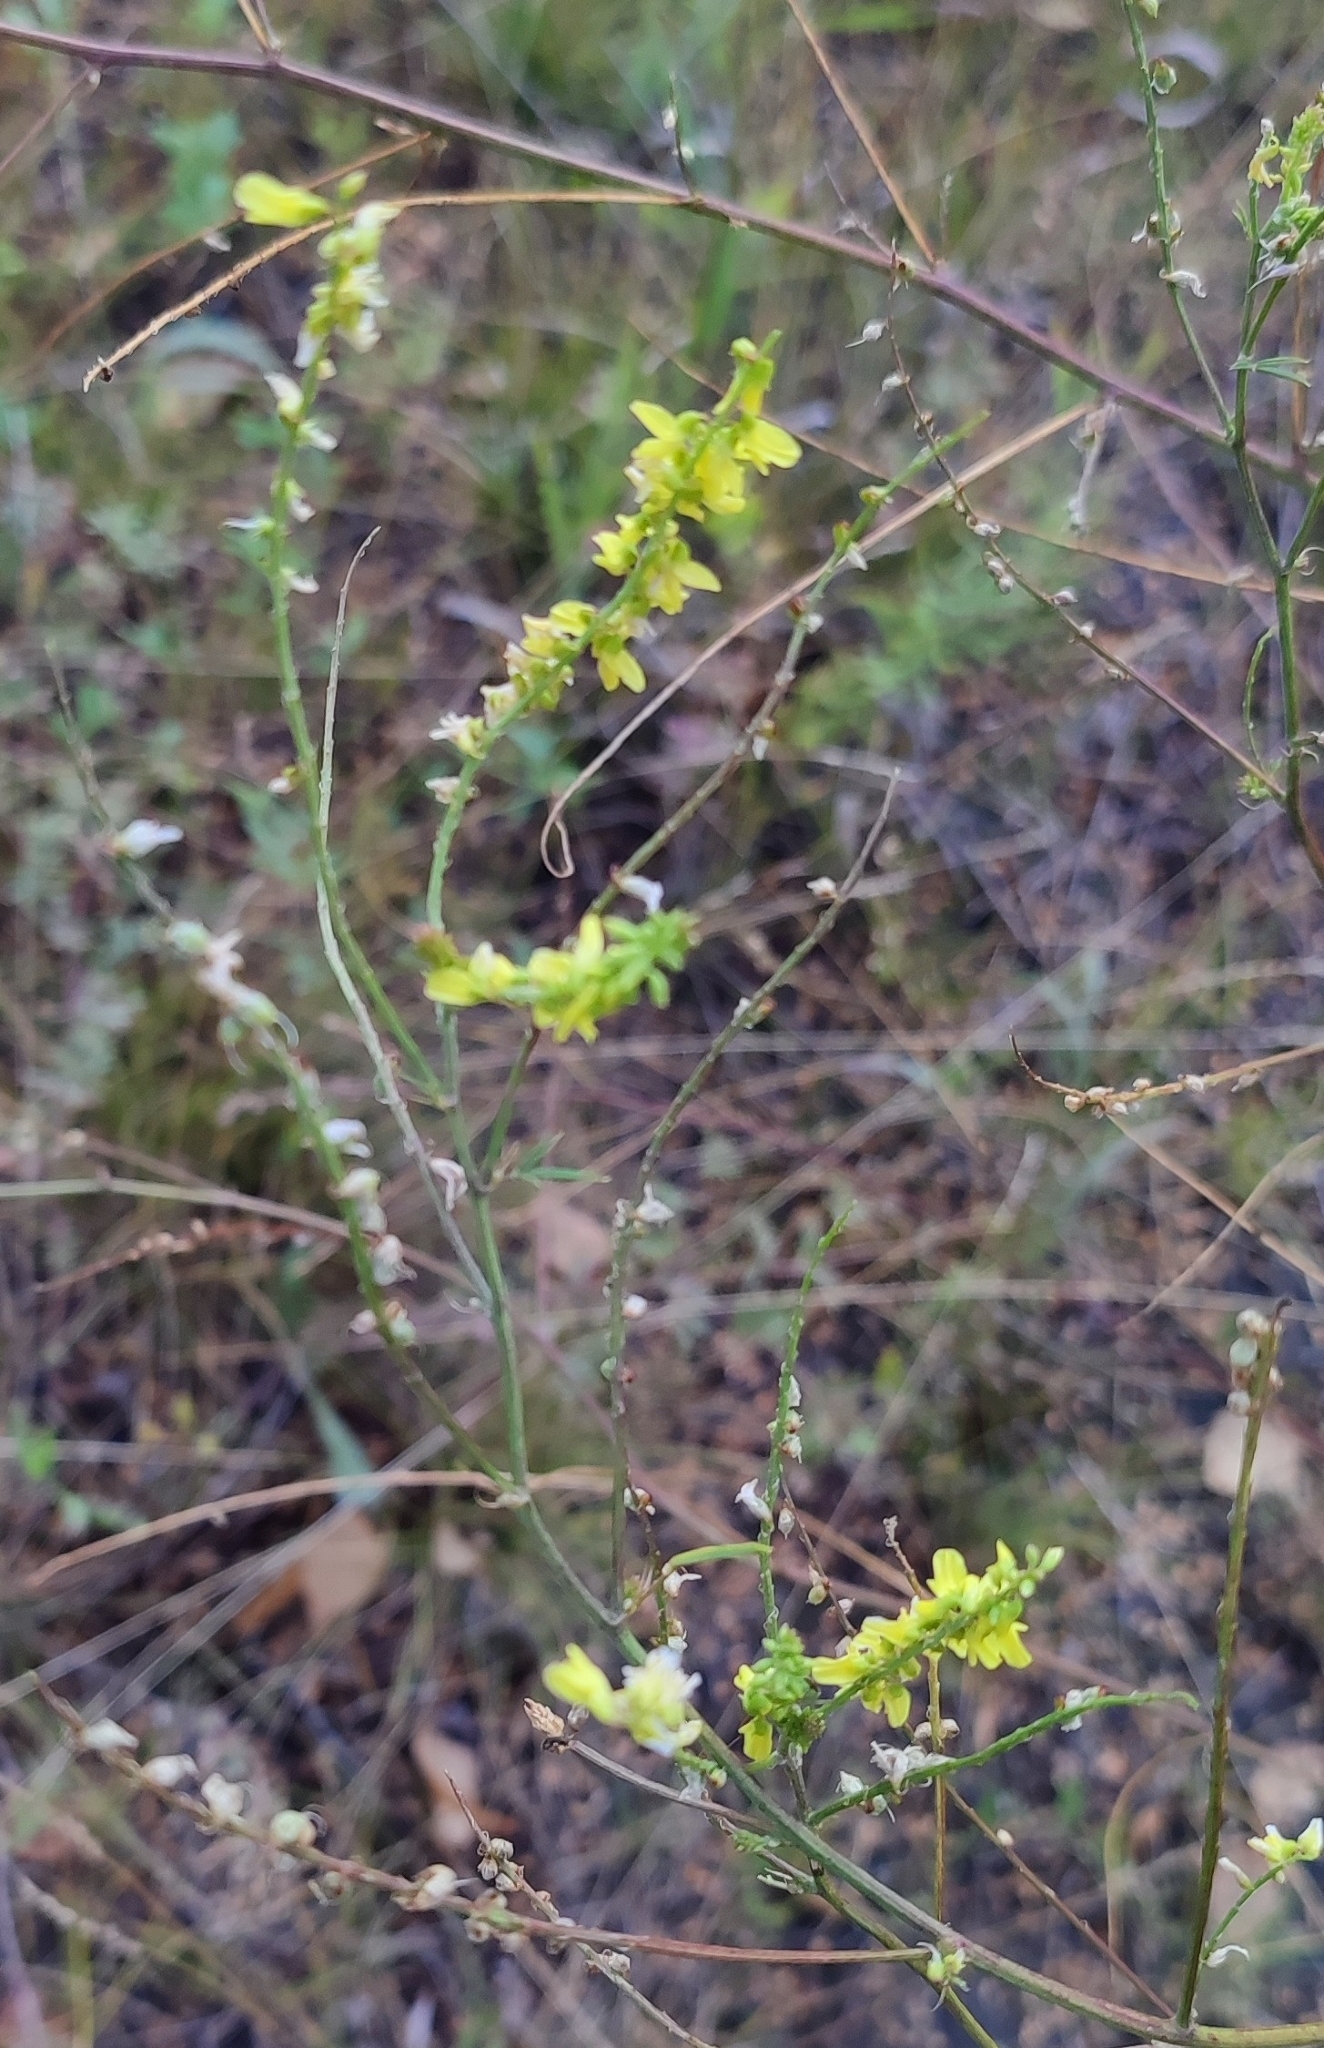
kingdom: Plantae
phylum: Tracheophyta
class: Magnoliopsida
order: Fabales
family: Fabaceae
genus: Melilotus
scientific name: Melilotus officinalis
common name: Sweetclover
